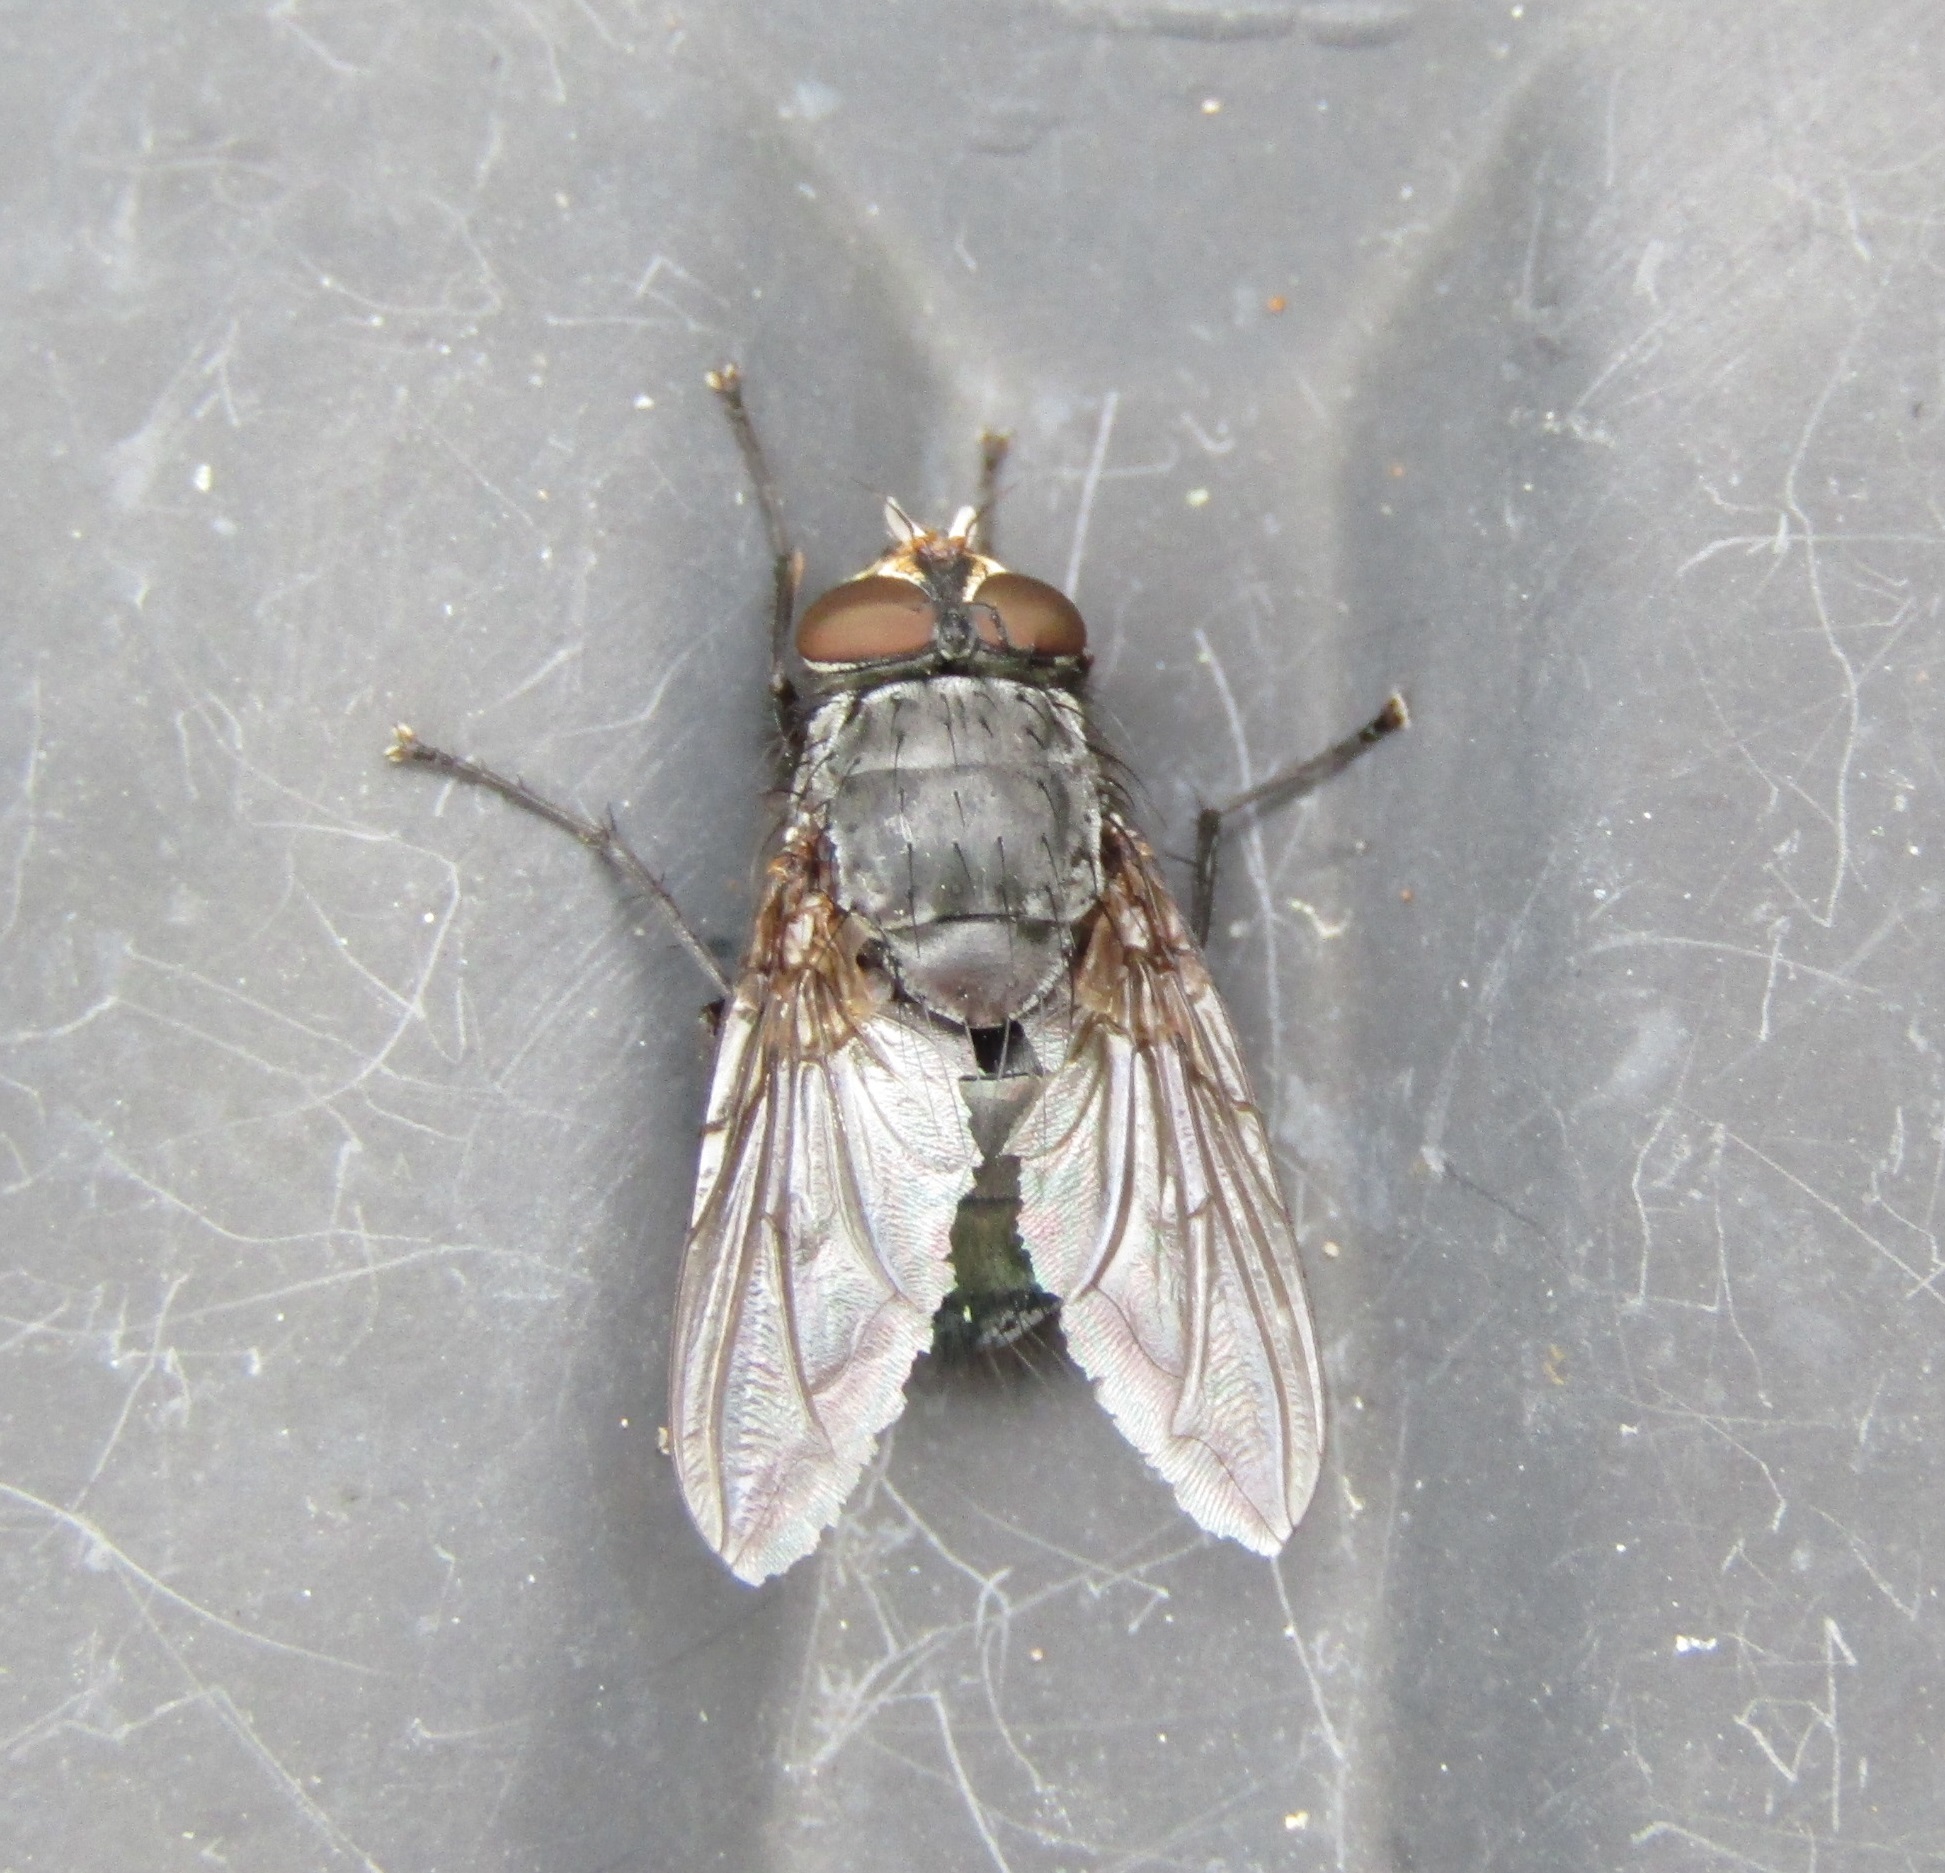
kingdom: Animalia
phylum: Arthropoda
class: Insecta
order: Diptera
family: Calliphoridae
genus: Calliphora
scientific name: Calliphora vicina
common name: Common blow flie
